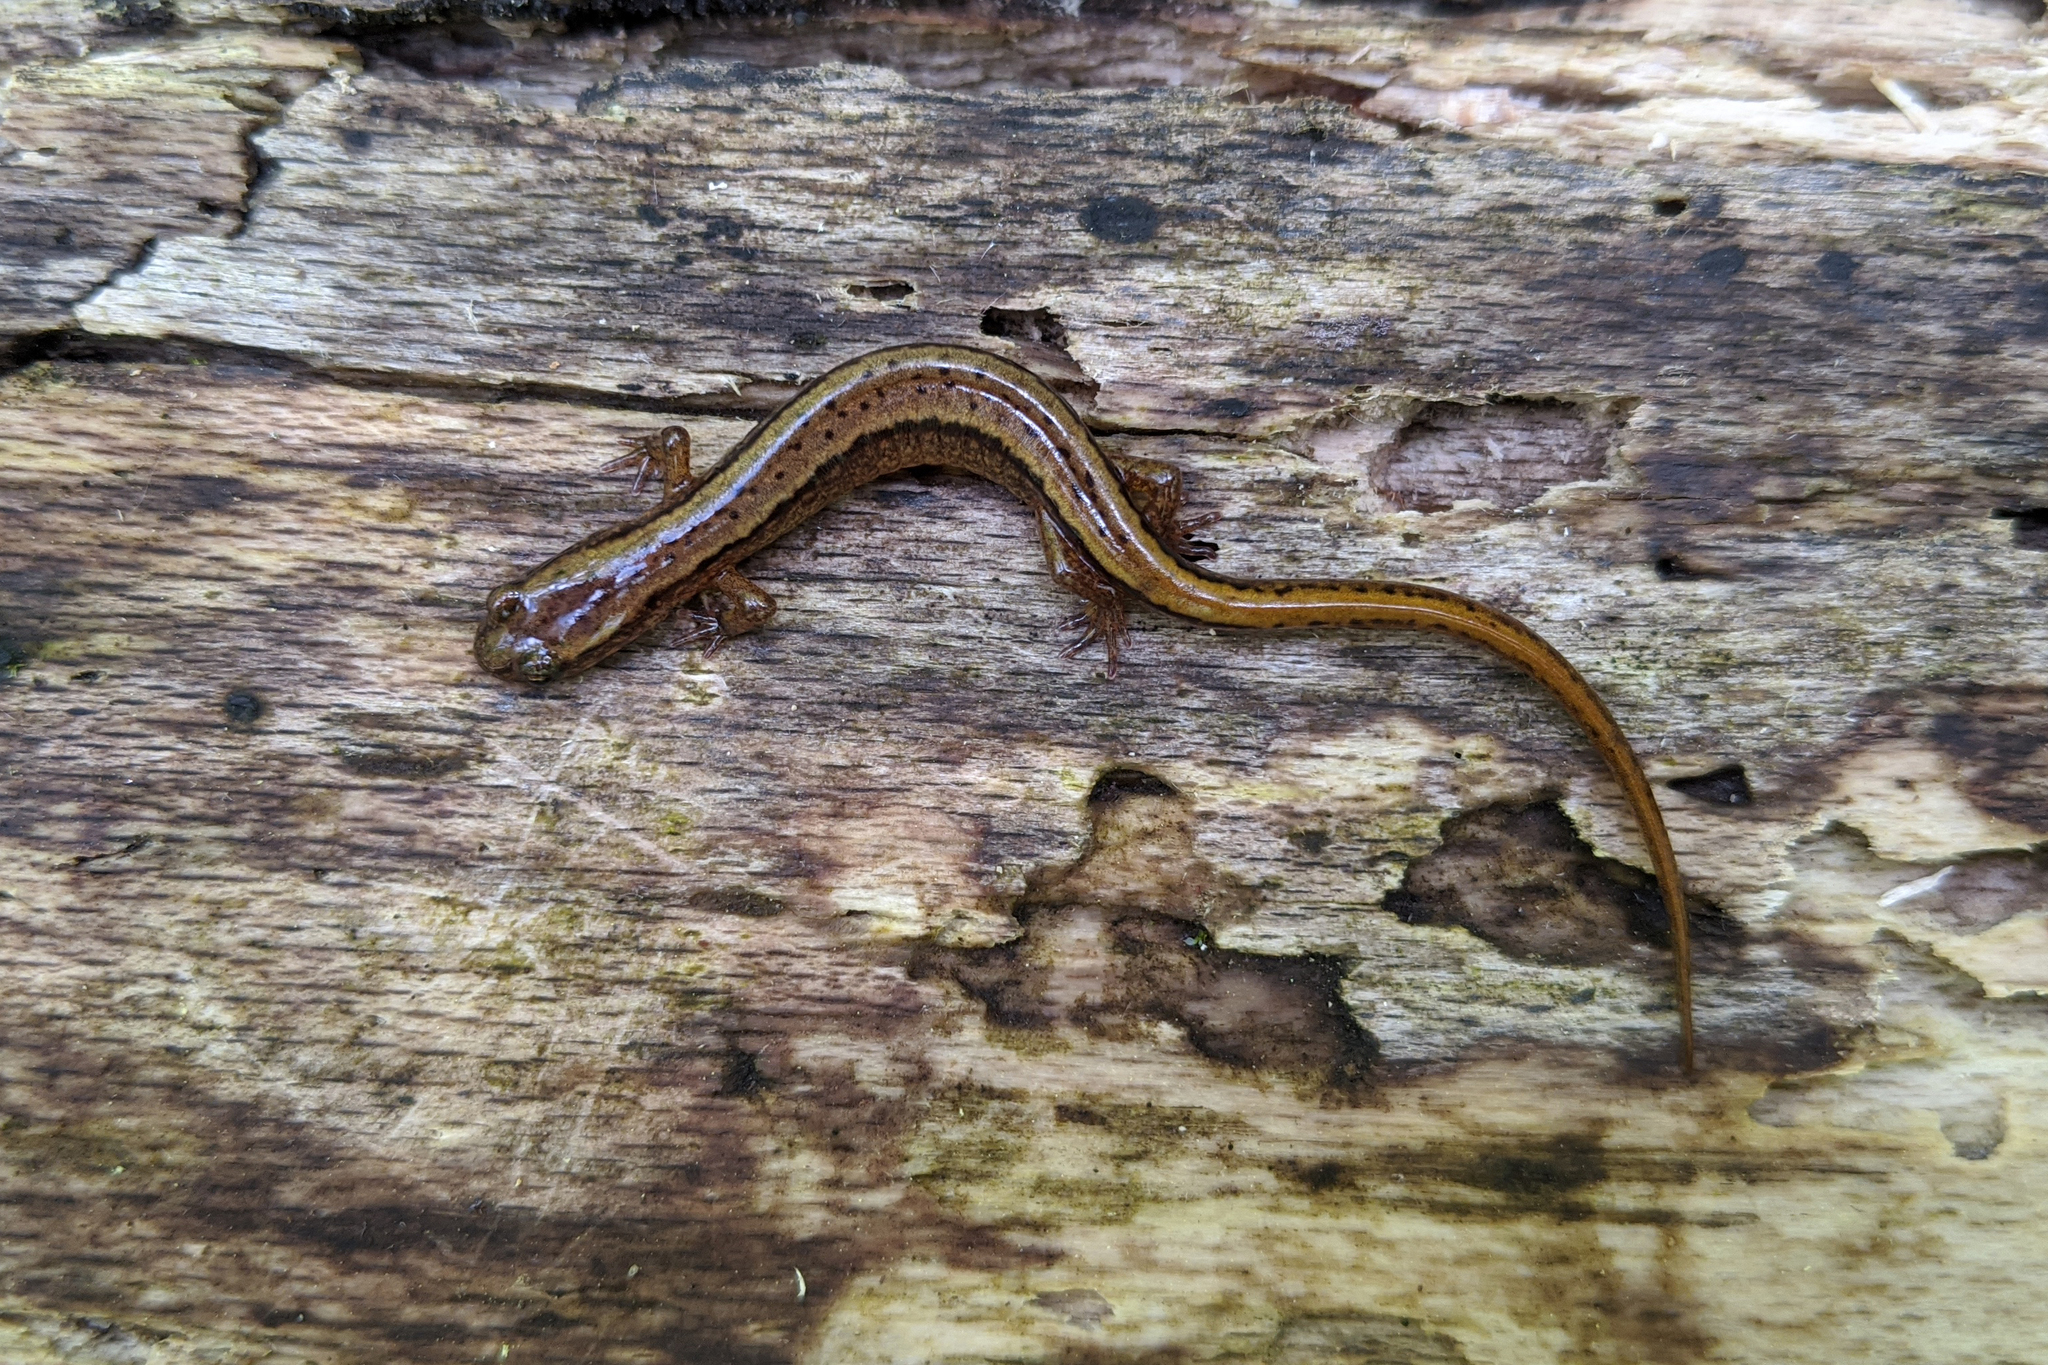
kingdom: Animalia
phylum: Chordata
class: Amphibia
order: Caudata
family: Plethodontidae
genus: Eurycea
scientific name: Eurycea bislineata
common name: Northern two-lined salamander
